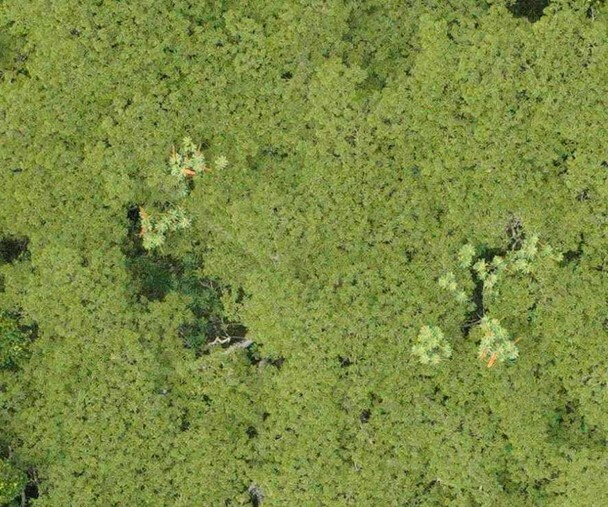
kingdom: Plantae
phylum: Tracheophyta
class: Magnoliopsida
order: Ericales
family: Marcgraviaceae
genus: Norantea
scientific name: Norantea guianensis
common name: Red hot poker vine
